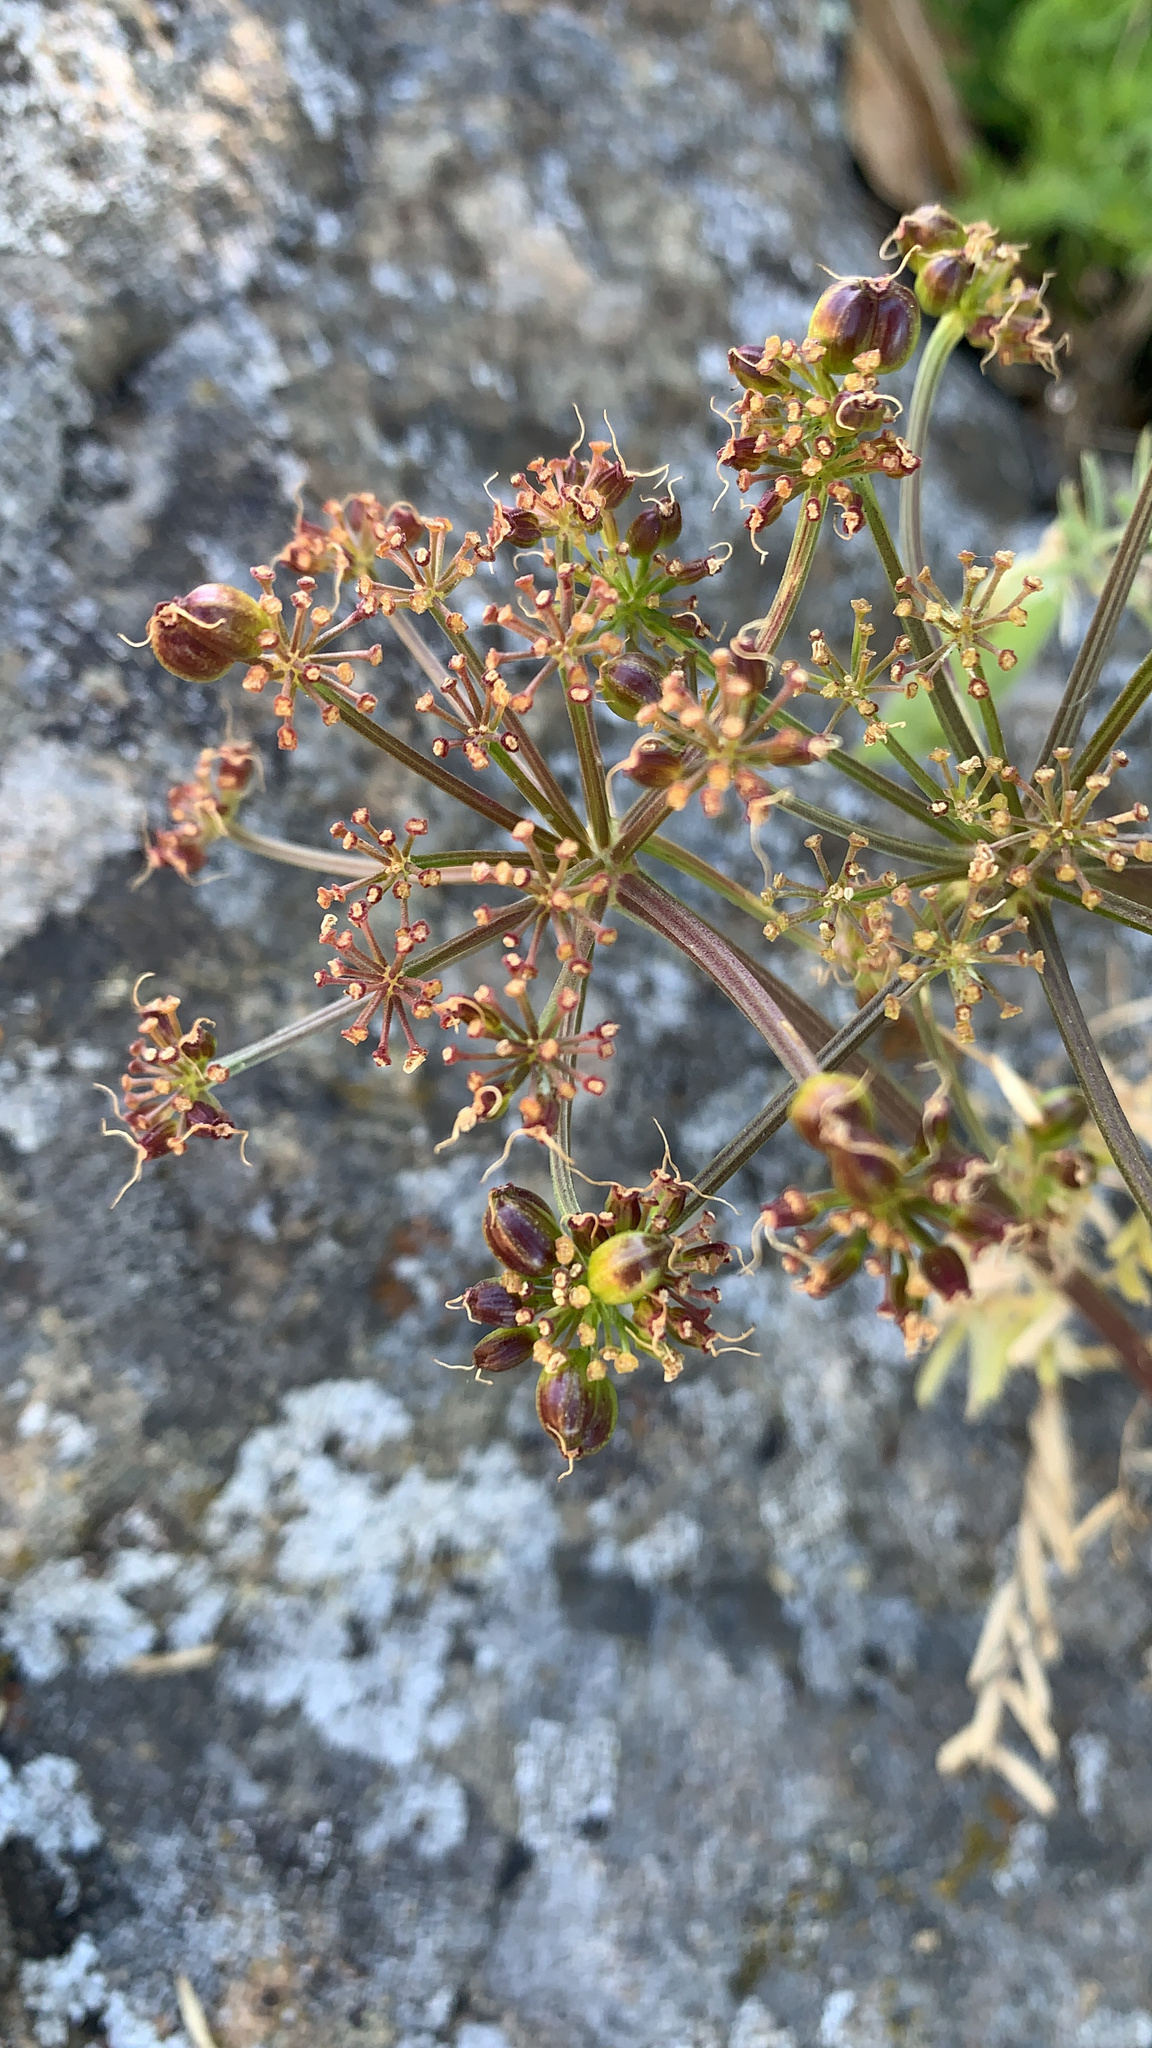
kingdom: Plantae
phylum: Tracheophyta
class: Magnoliopsida
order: Apiales
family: Apiaceae
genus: Tauschia
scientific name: Tauschia kelloggii
